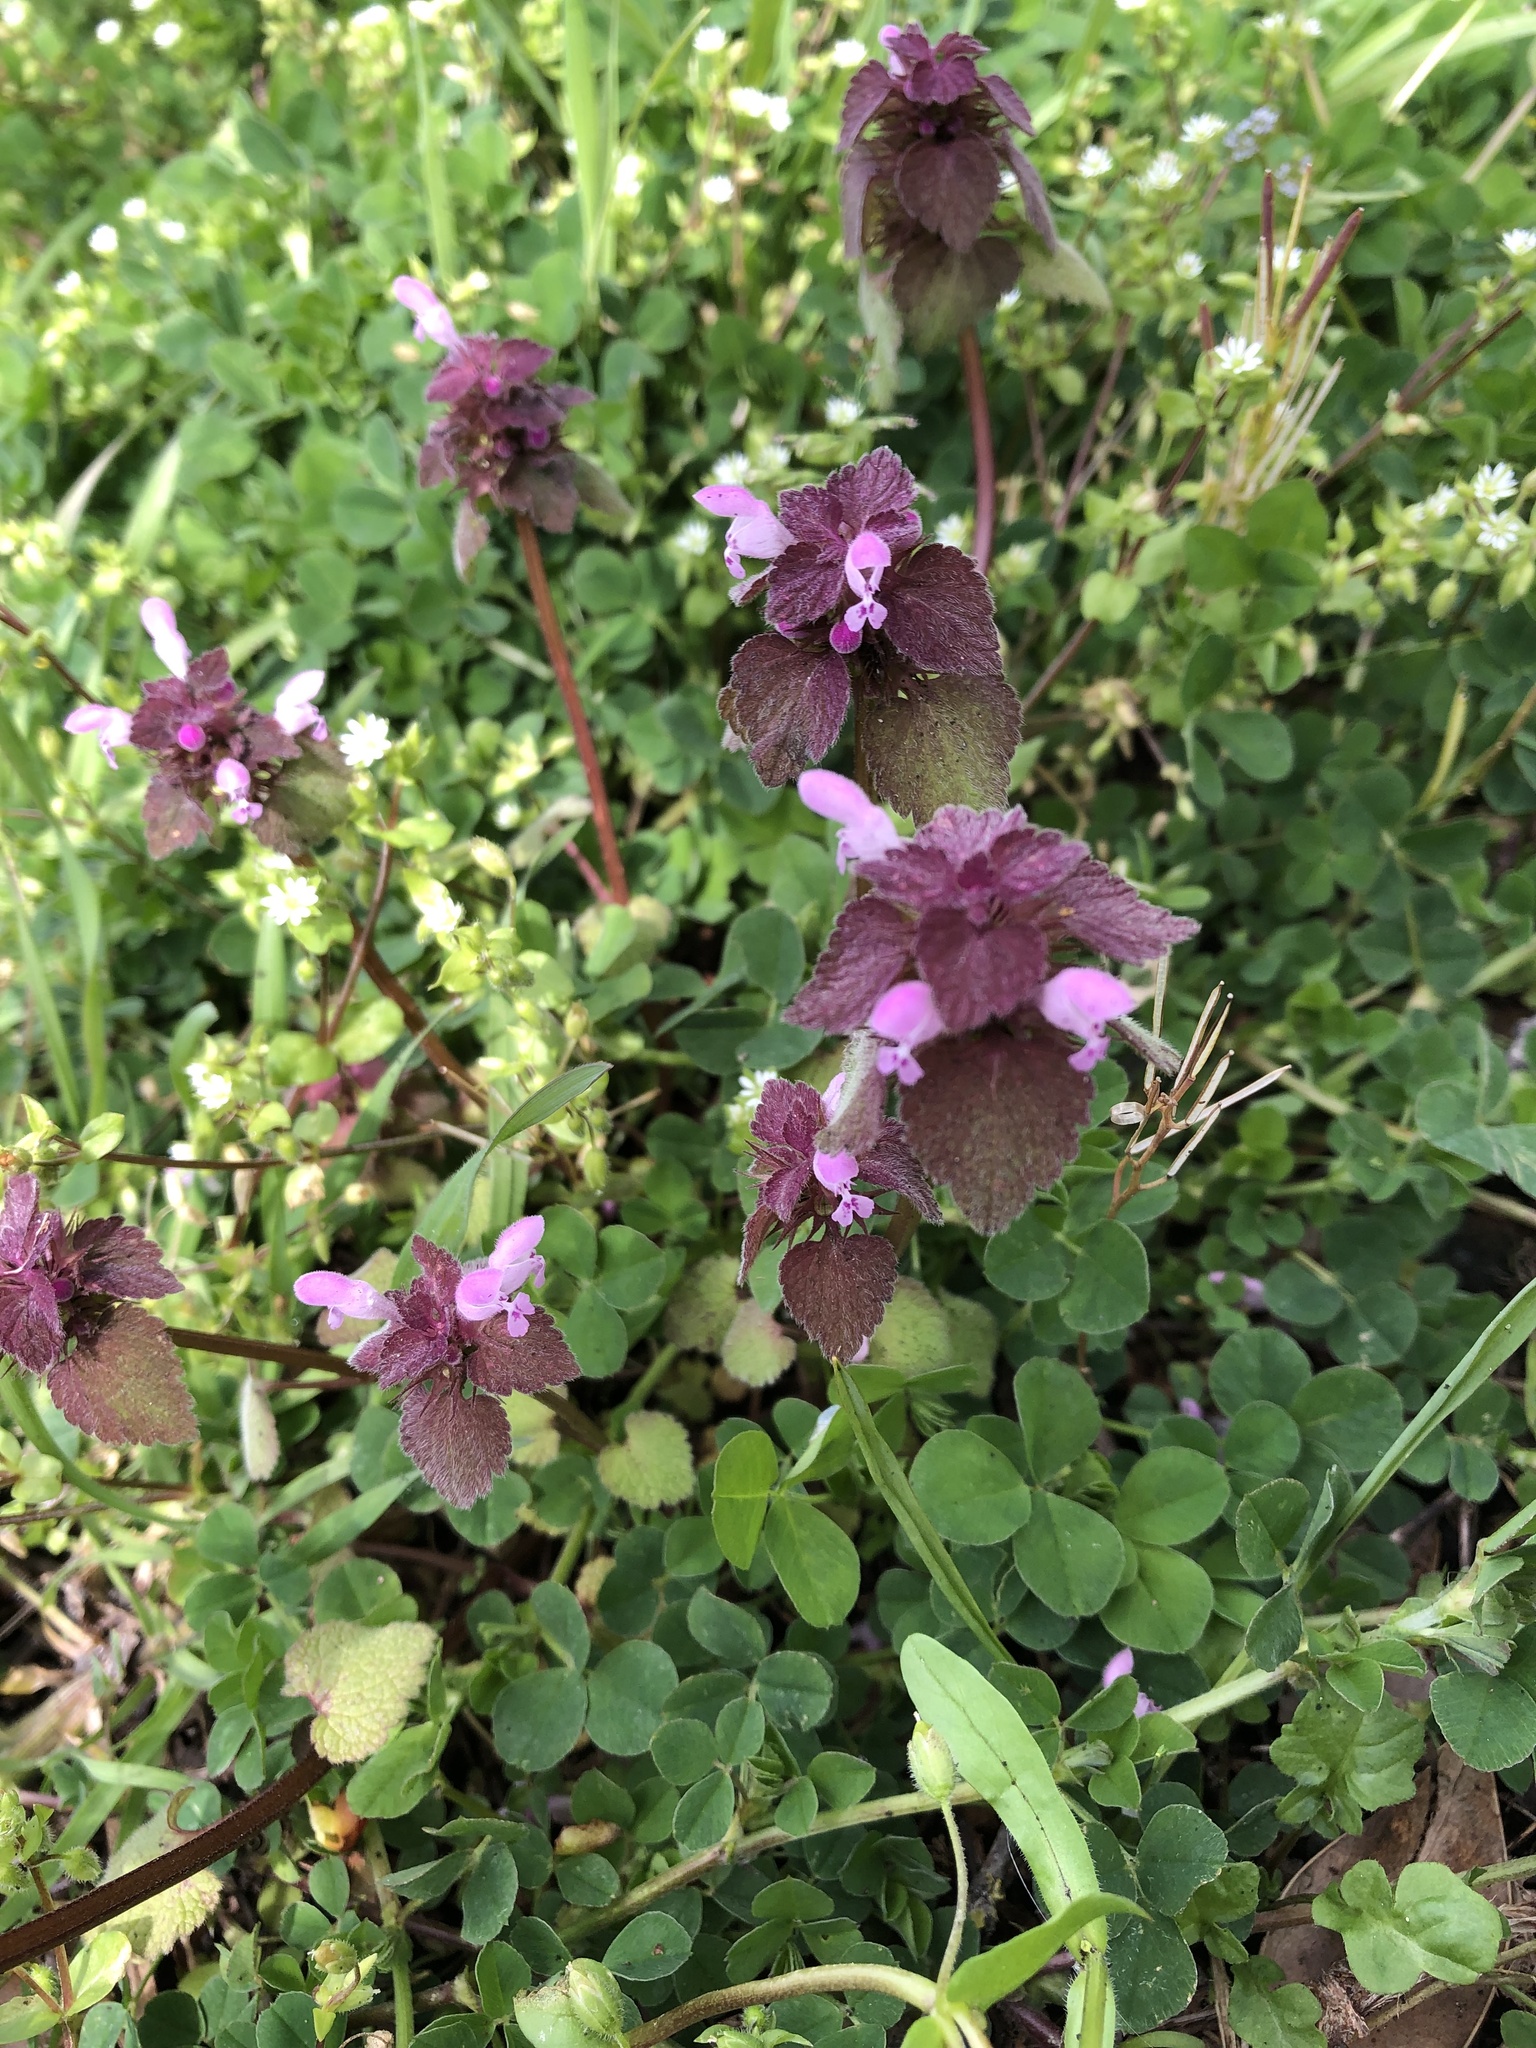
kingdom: Plantae
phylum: Tracheophyta
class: Magnoliopsida
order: Lamiales
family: Lamiaceae
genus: Lamium
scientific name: Lamium purpureum
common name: Red dead-nettle
